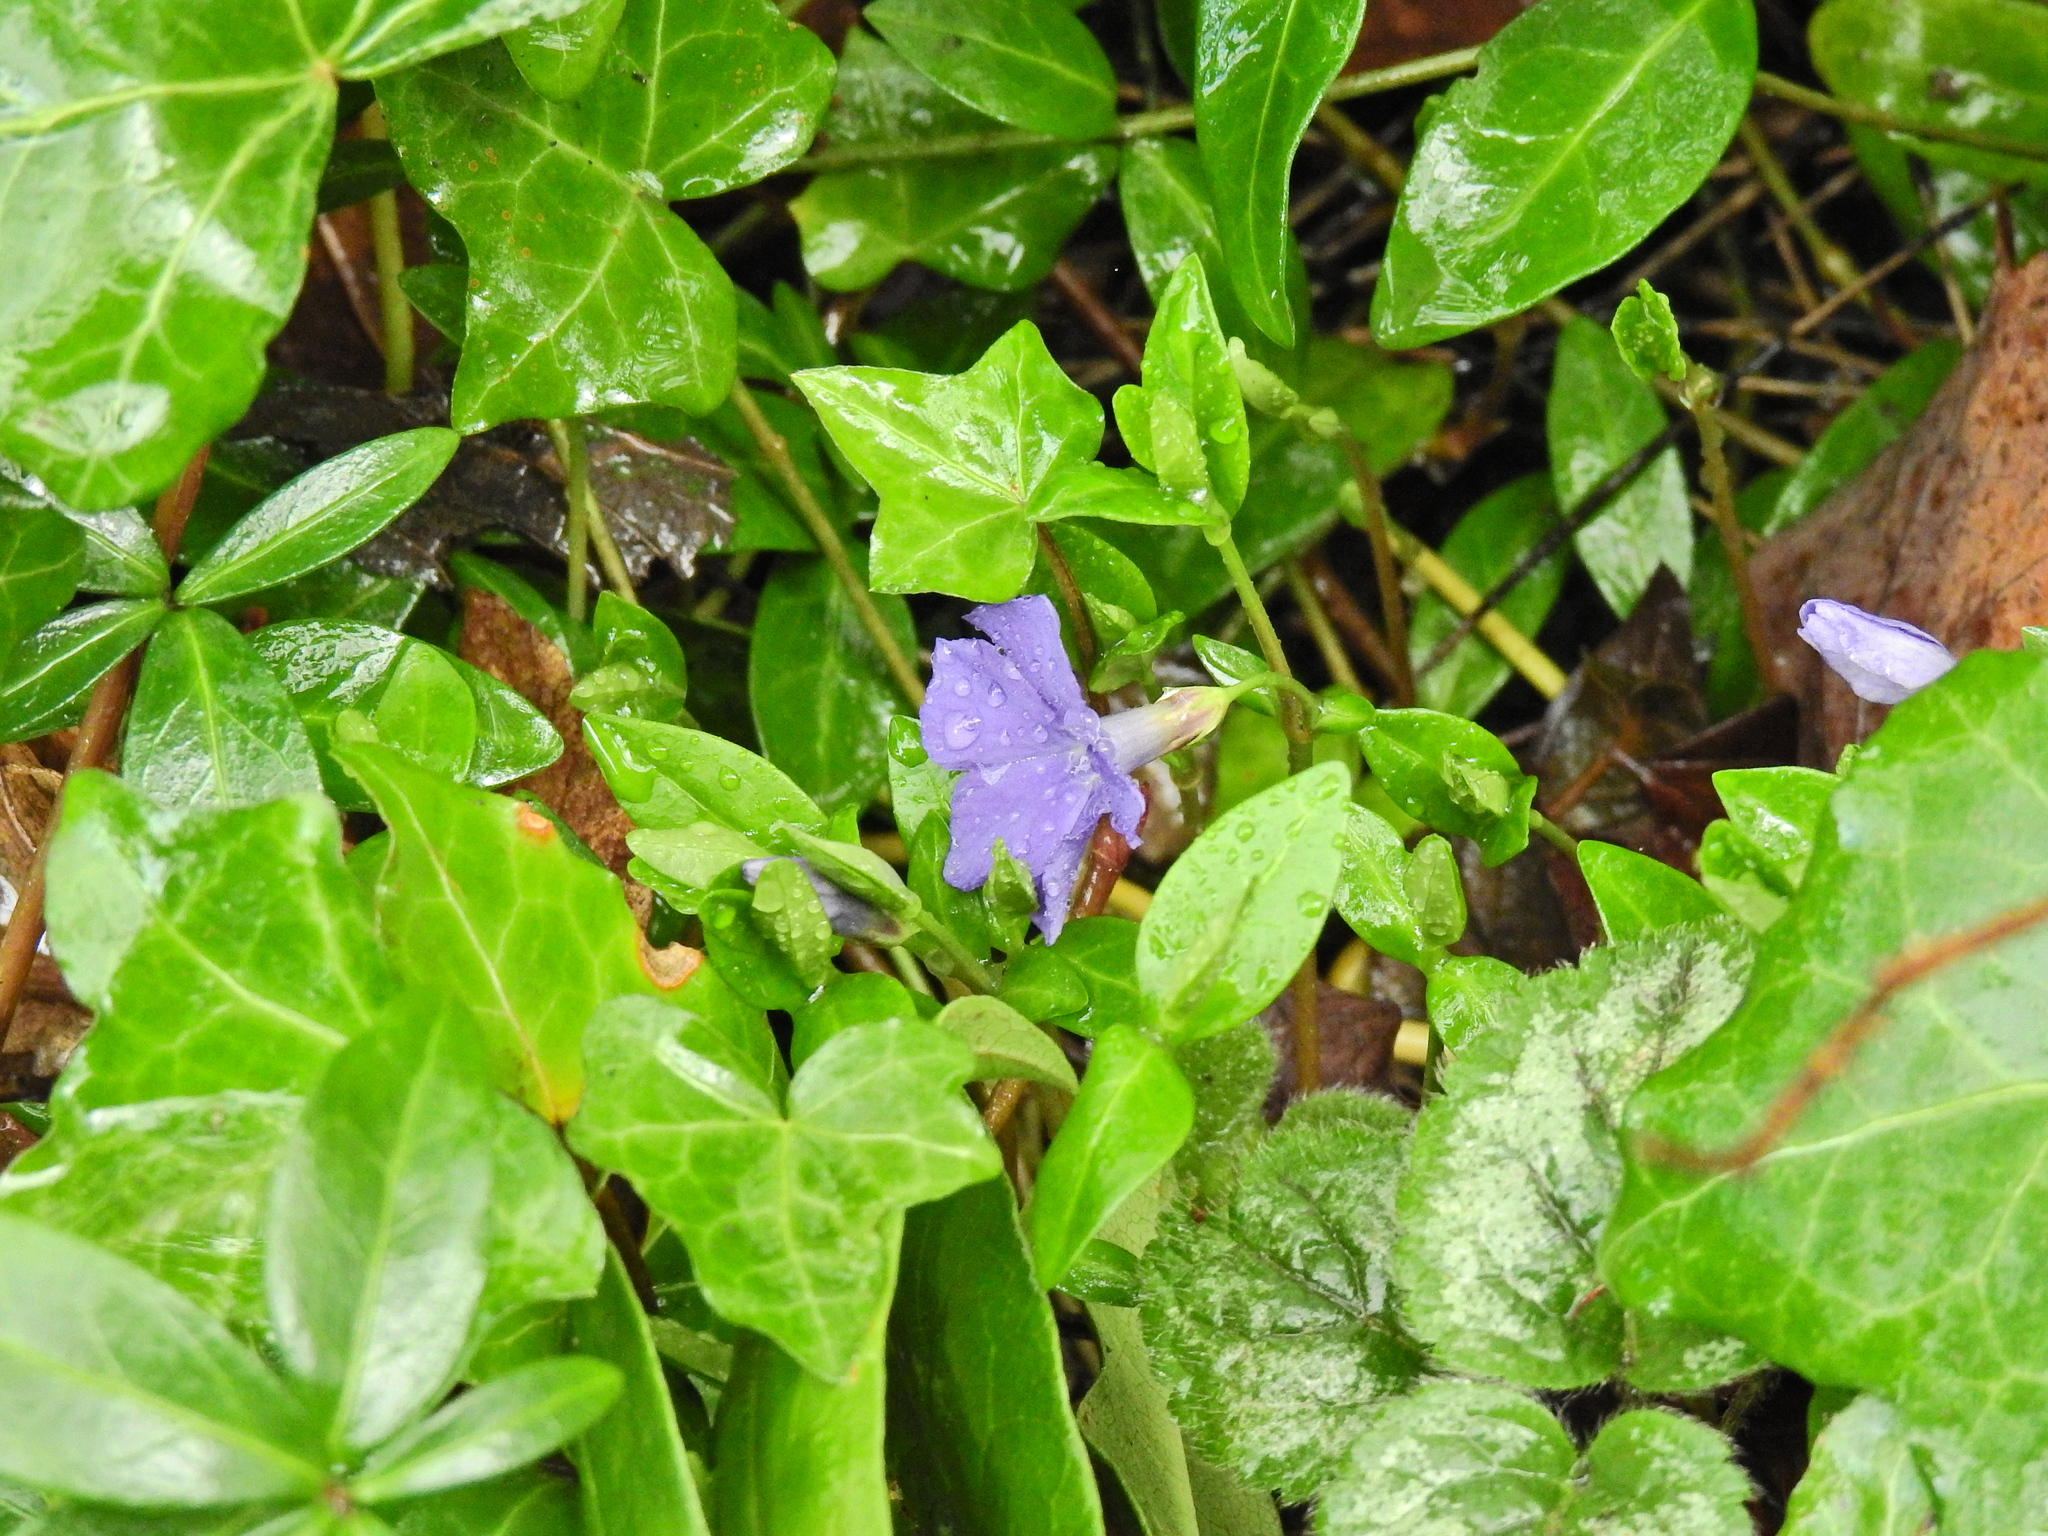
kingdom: Plantae
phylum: Tracheophyta
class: Magnoliopsida
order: Gentianales
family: Apocynaceae
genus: Vinca
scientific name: Vinca minor
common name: Lesser periwinkle
